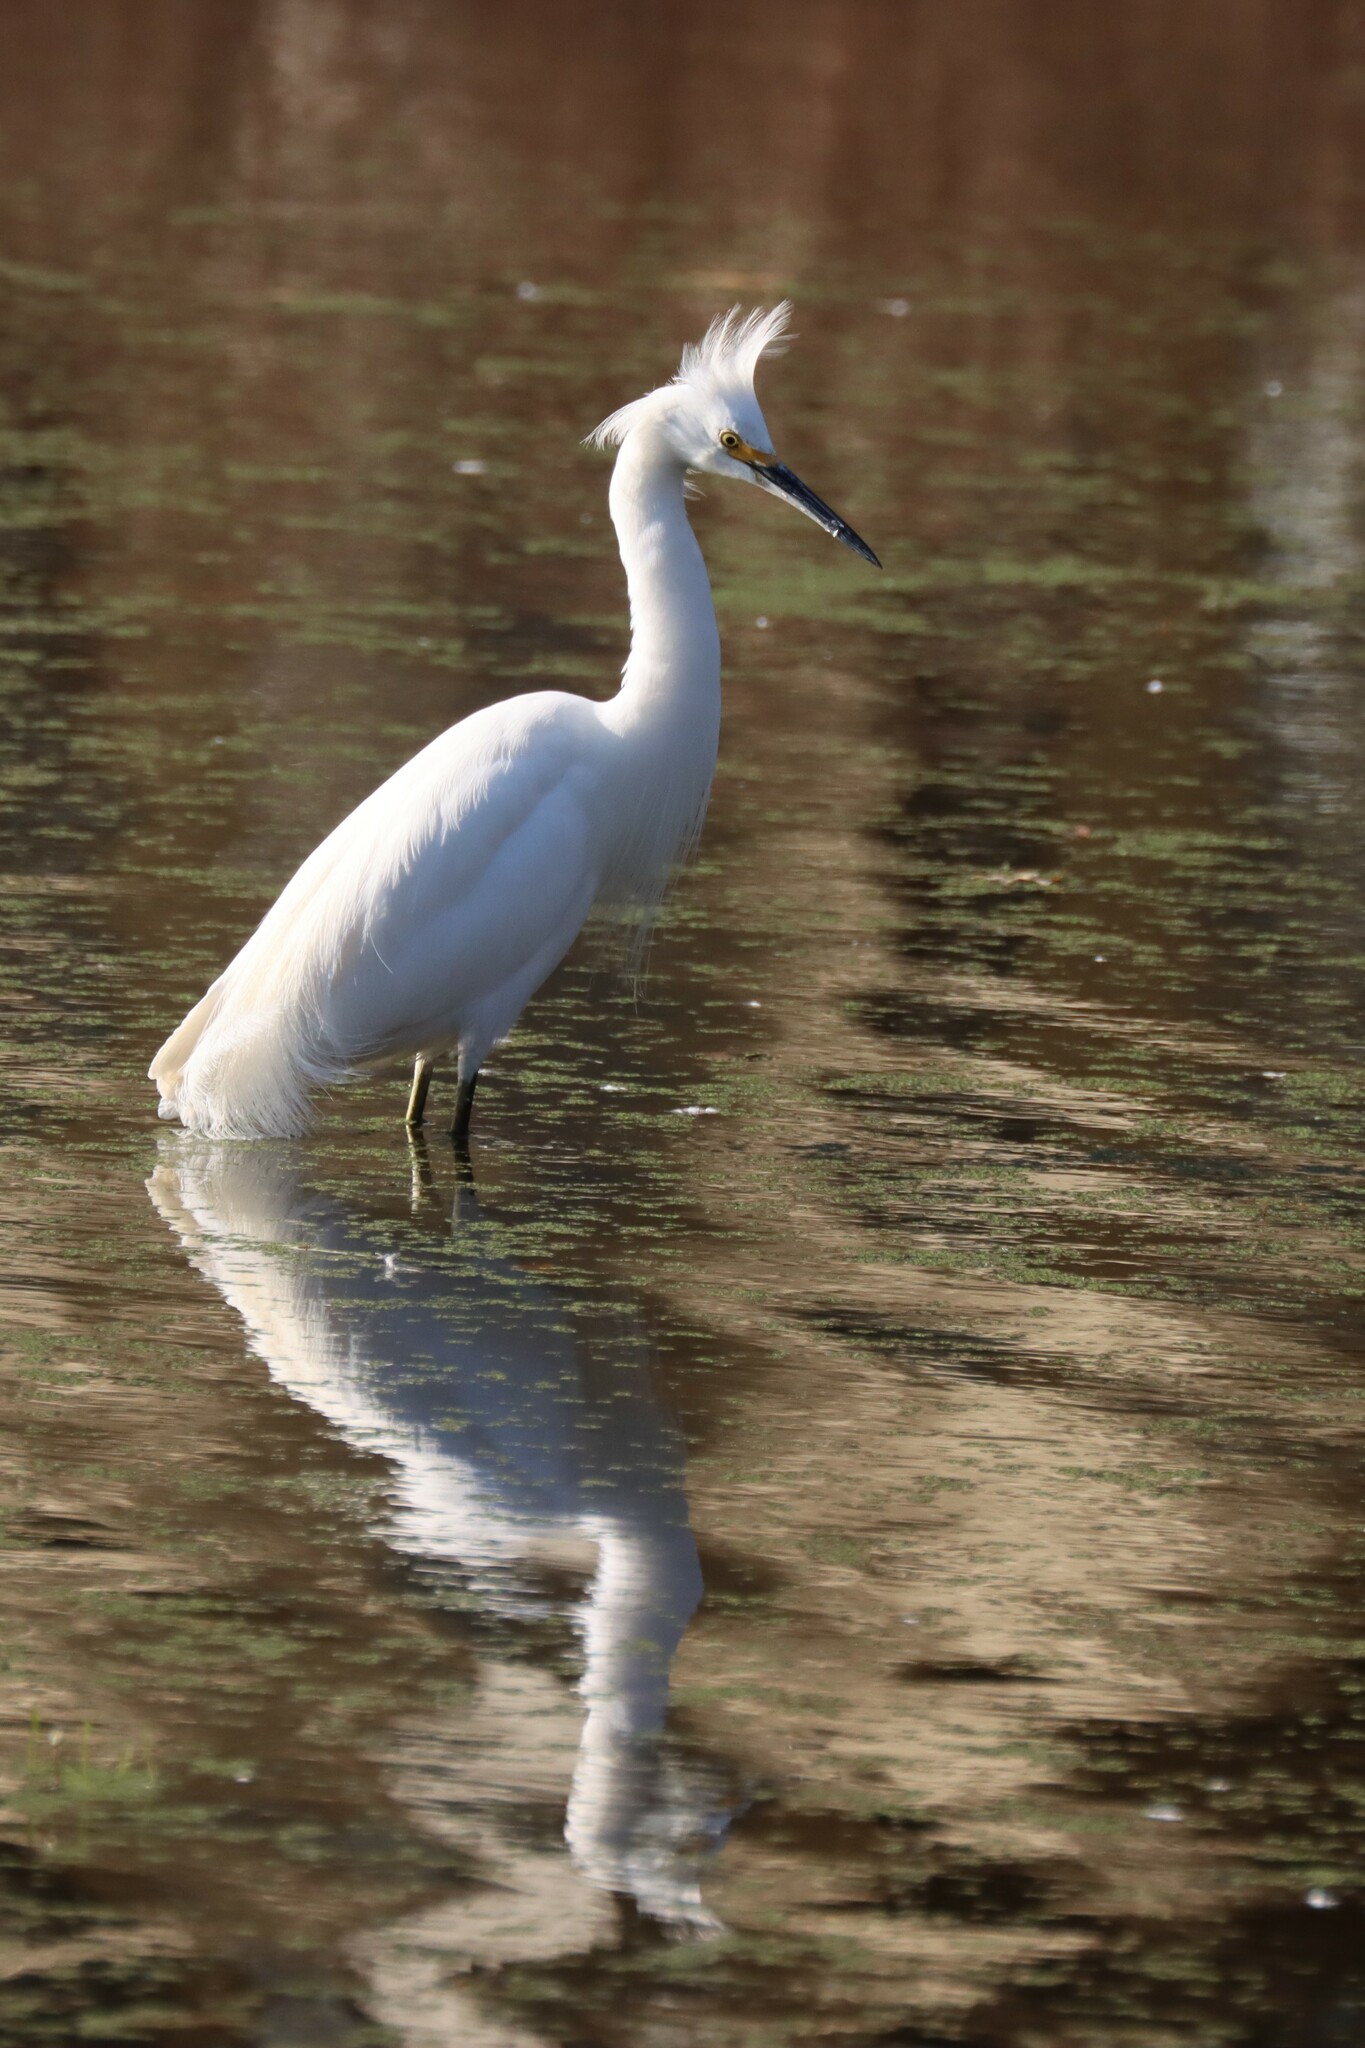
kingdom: Animalia
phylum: Chordata
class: Aves
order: Pelecaniformes
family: Ardeidae
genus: Egretta
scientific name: Egretta thula
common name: Snowy egret
